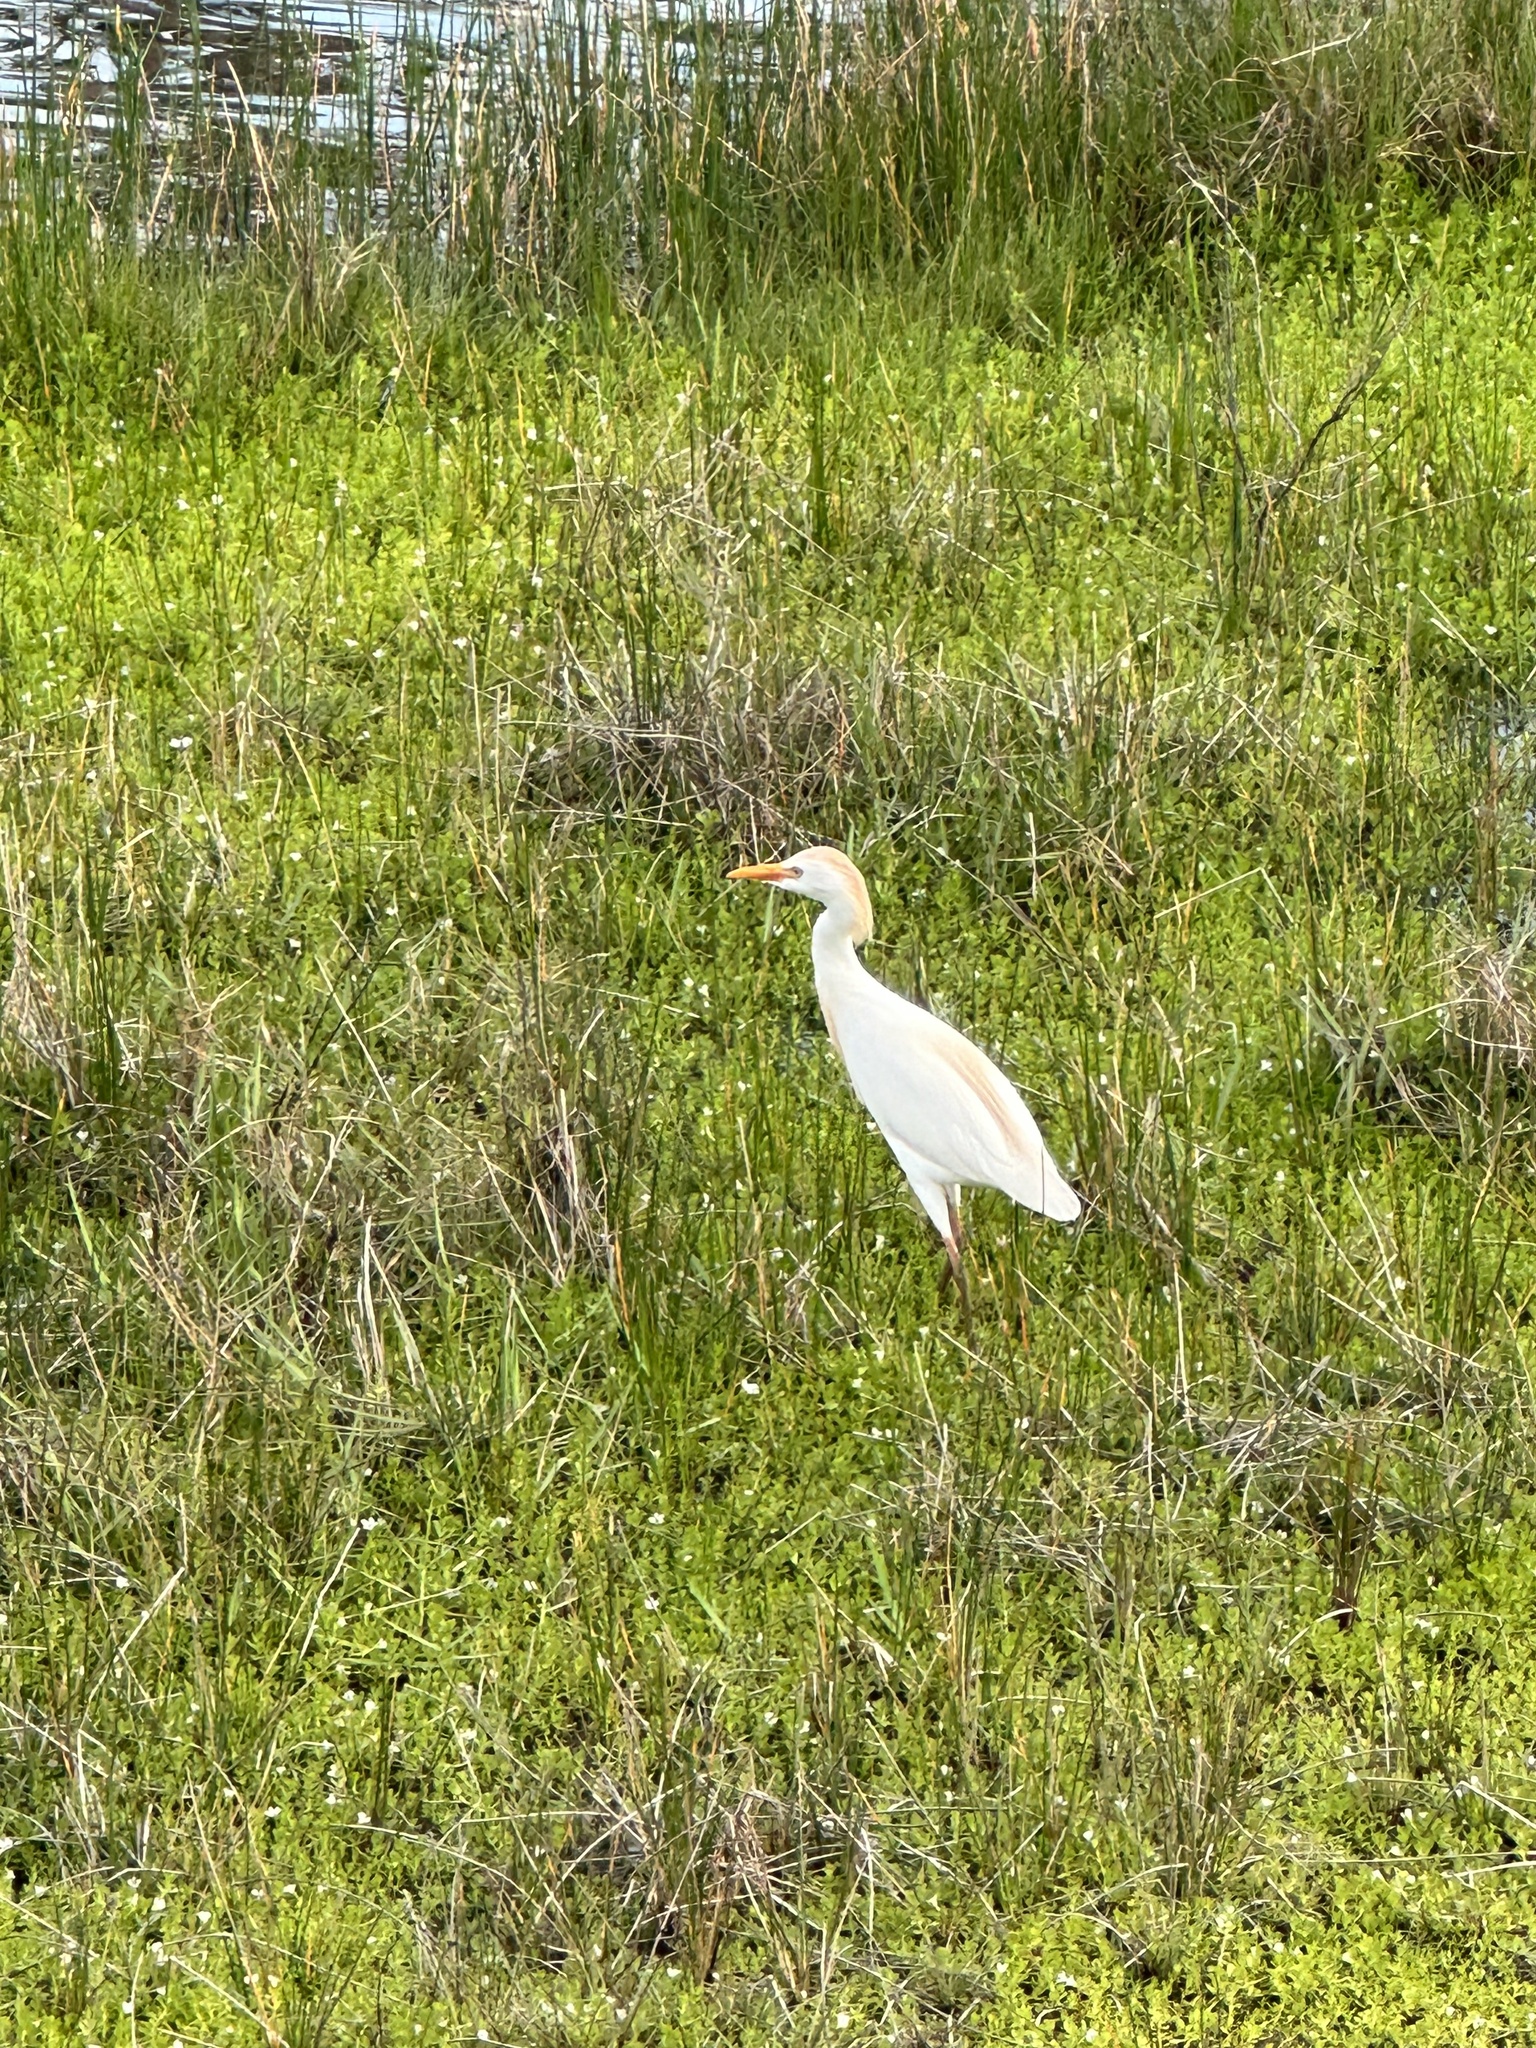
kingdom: Animalia
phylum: Chordata
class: Aves
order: Pelecaniformes
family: Ardeidae
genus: Bubulcus
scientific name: Bubulcus ibis
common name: Cattle egret
